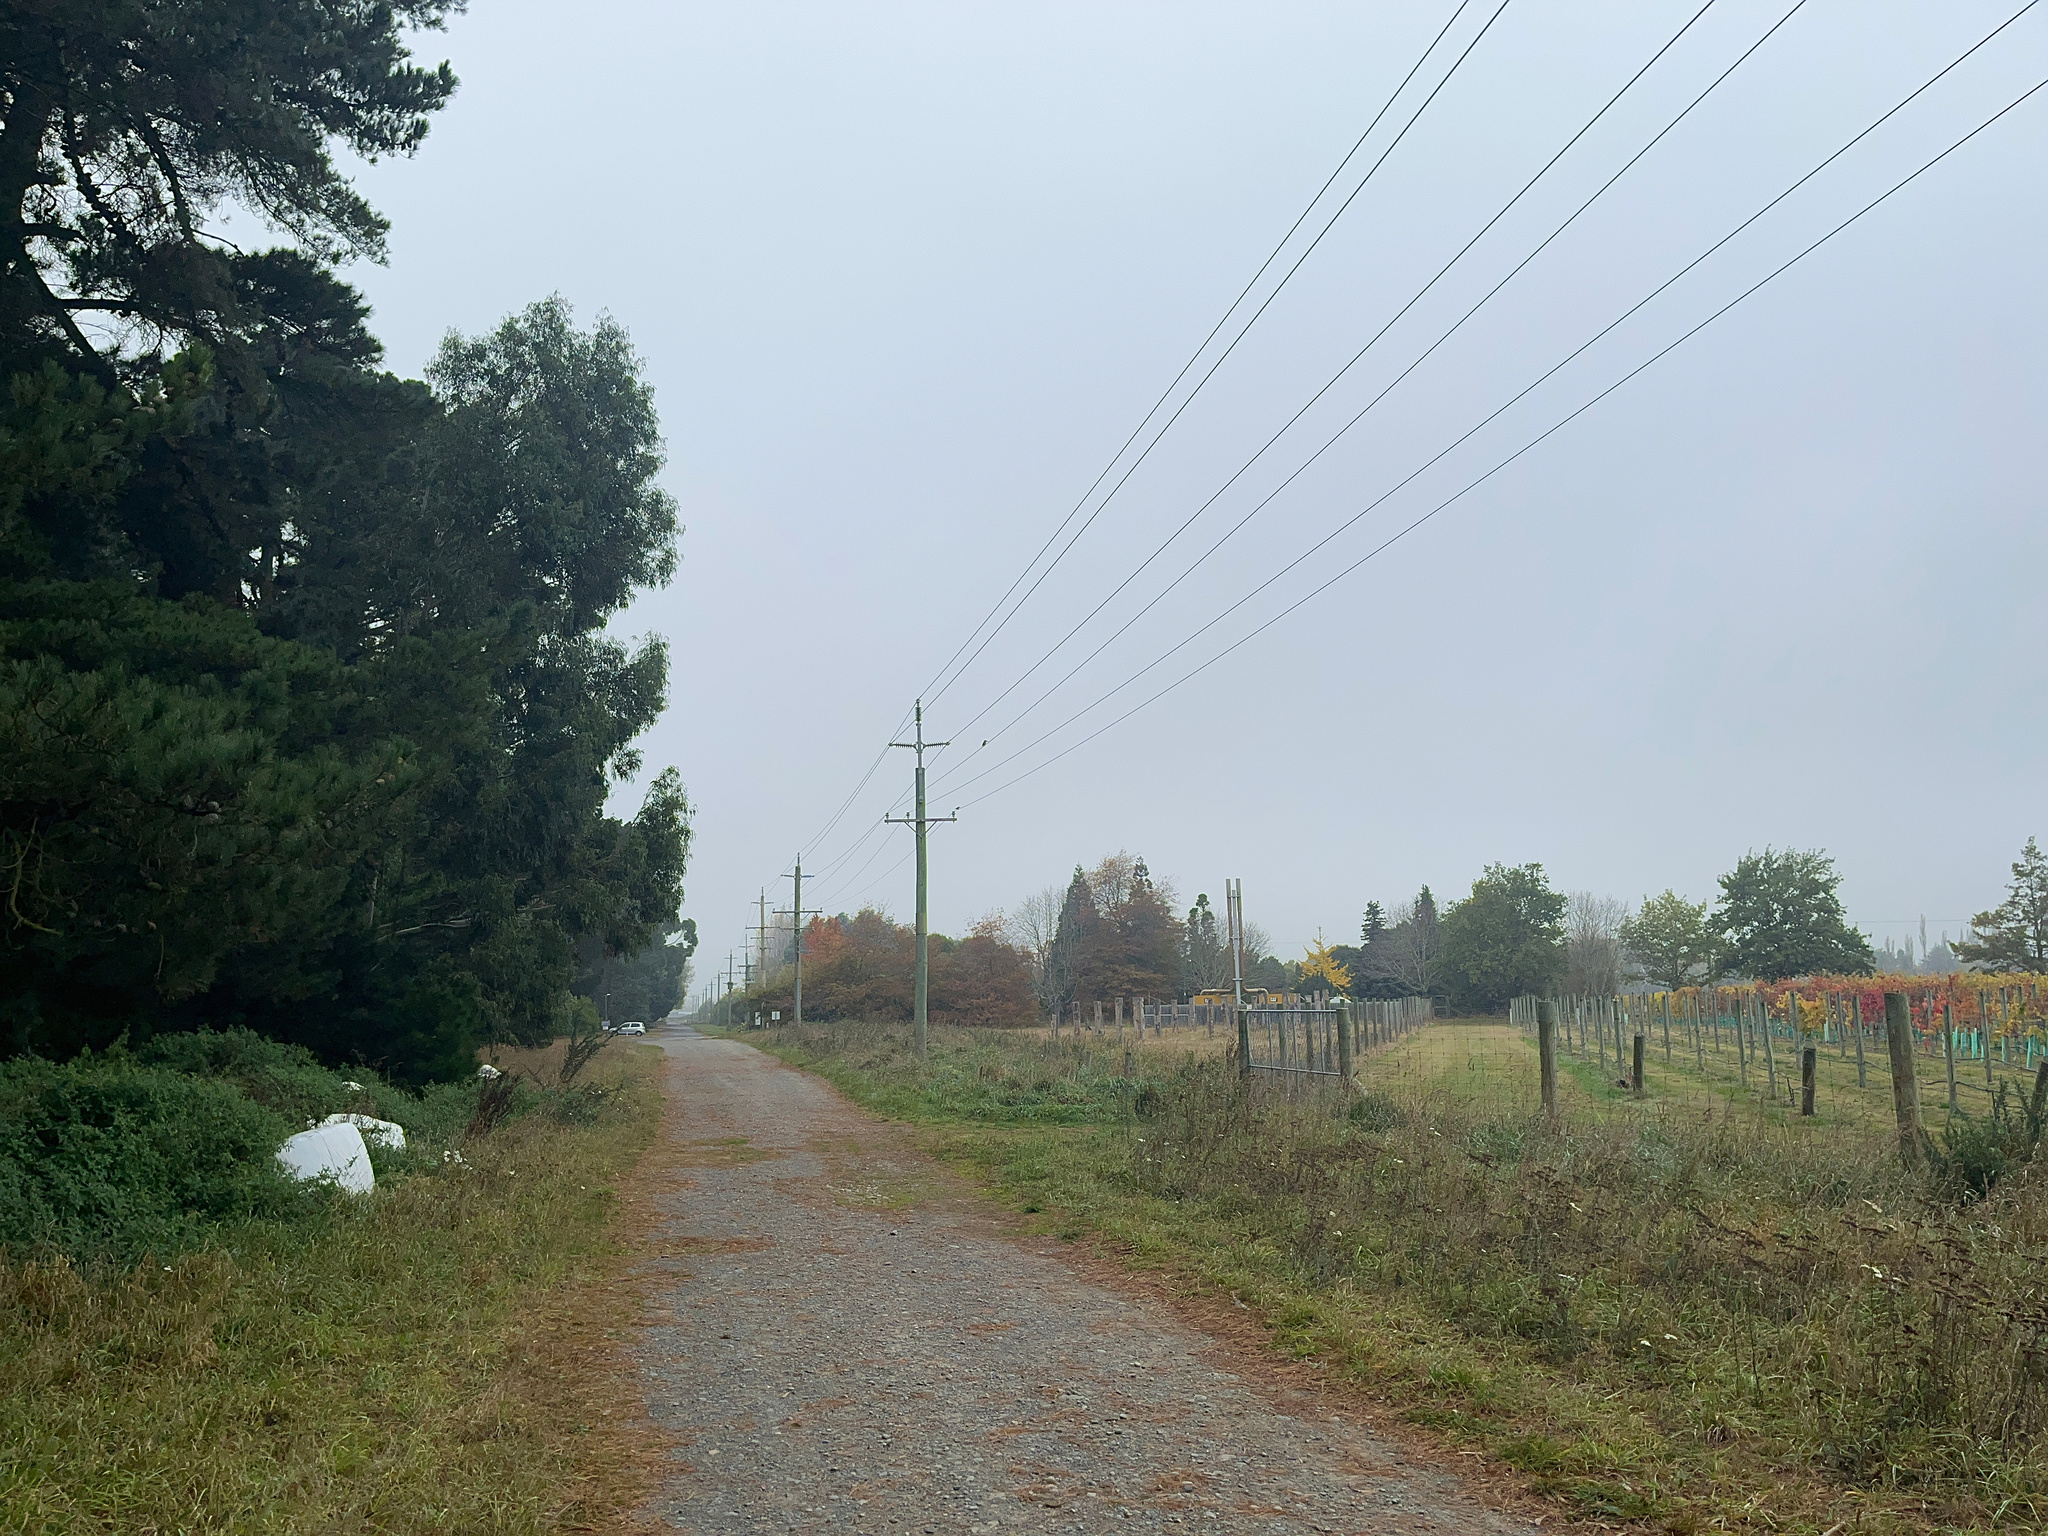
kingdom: Animalia
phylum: Chordata
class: Aves
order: Coraciiformes
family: Alcedinidae
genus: Todiramphus
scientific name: Todiramphus sanctus
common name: Sacred kingfisher
